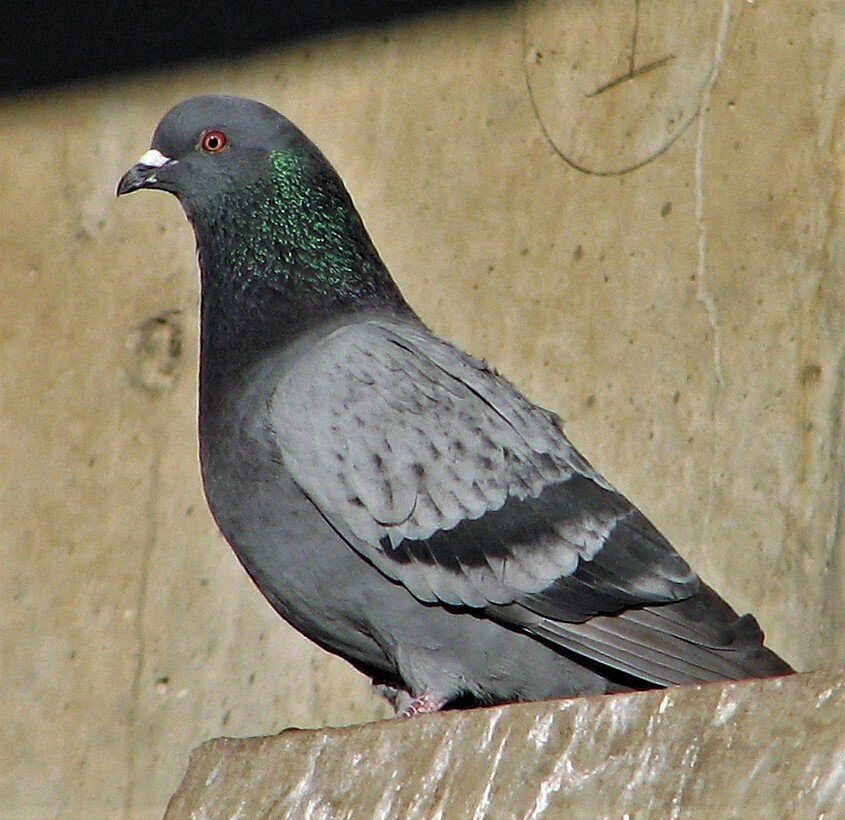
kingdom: Animalia
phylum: Chordata
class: Aves
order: Columbiformes
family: Columbidae
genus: Columba
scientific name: Columba livia
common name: Rock pigeon
